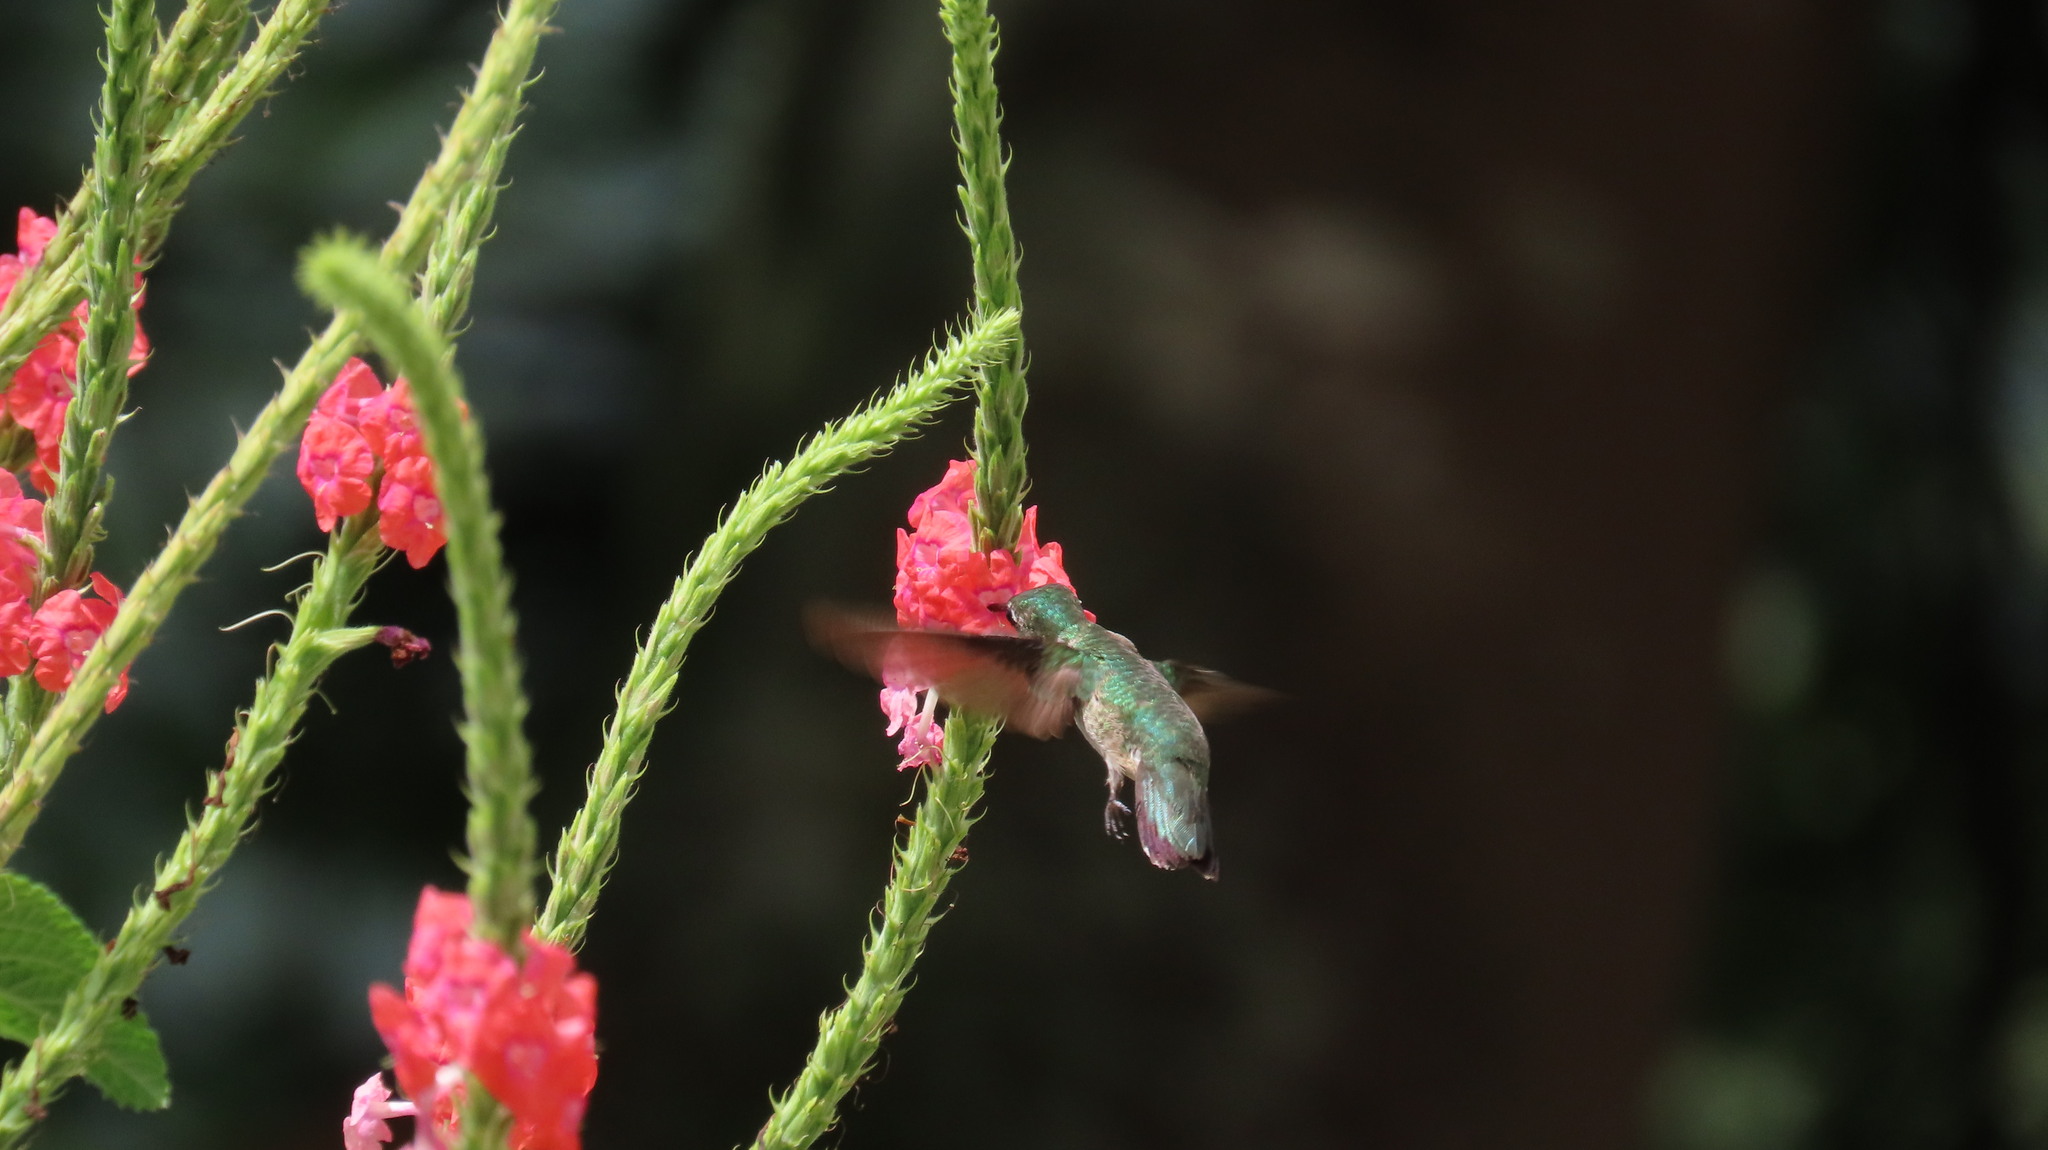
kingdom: Animalia
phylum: Chordata
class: Aves
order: Apodiformes
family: Trochilidae
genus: Archilochus
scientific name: Archilochus colubris
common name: Ruby-throated hummingbird
